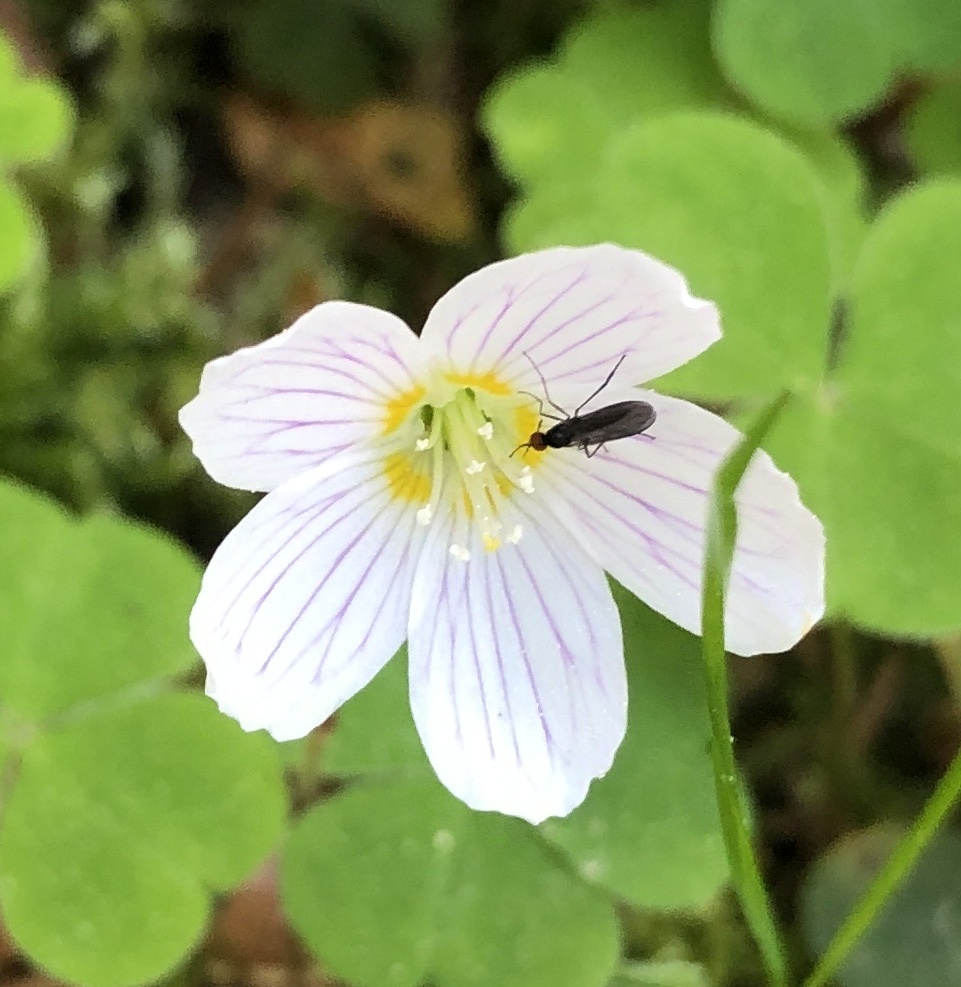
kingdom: Plantae
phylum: Tracheophyta
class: Magnoliopsida
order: Oxalidales
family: Oxalidaceae
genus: Oxalis
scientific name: Oxalis acetosella
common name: Wood-sorrel
